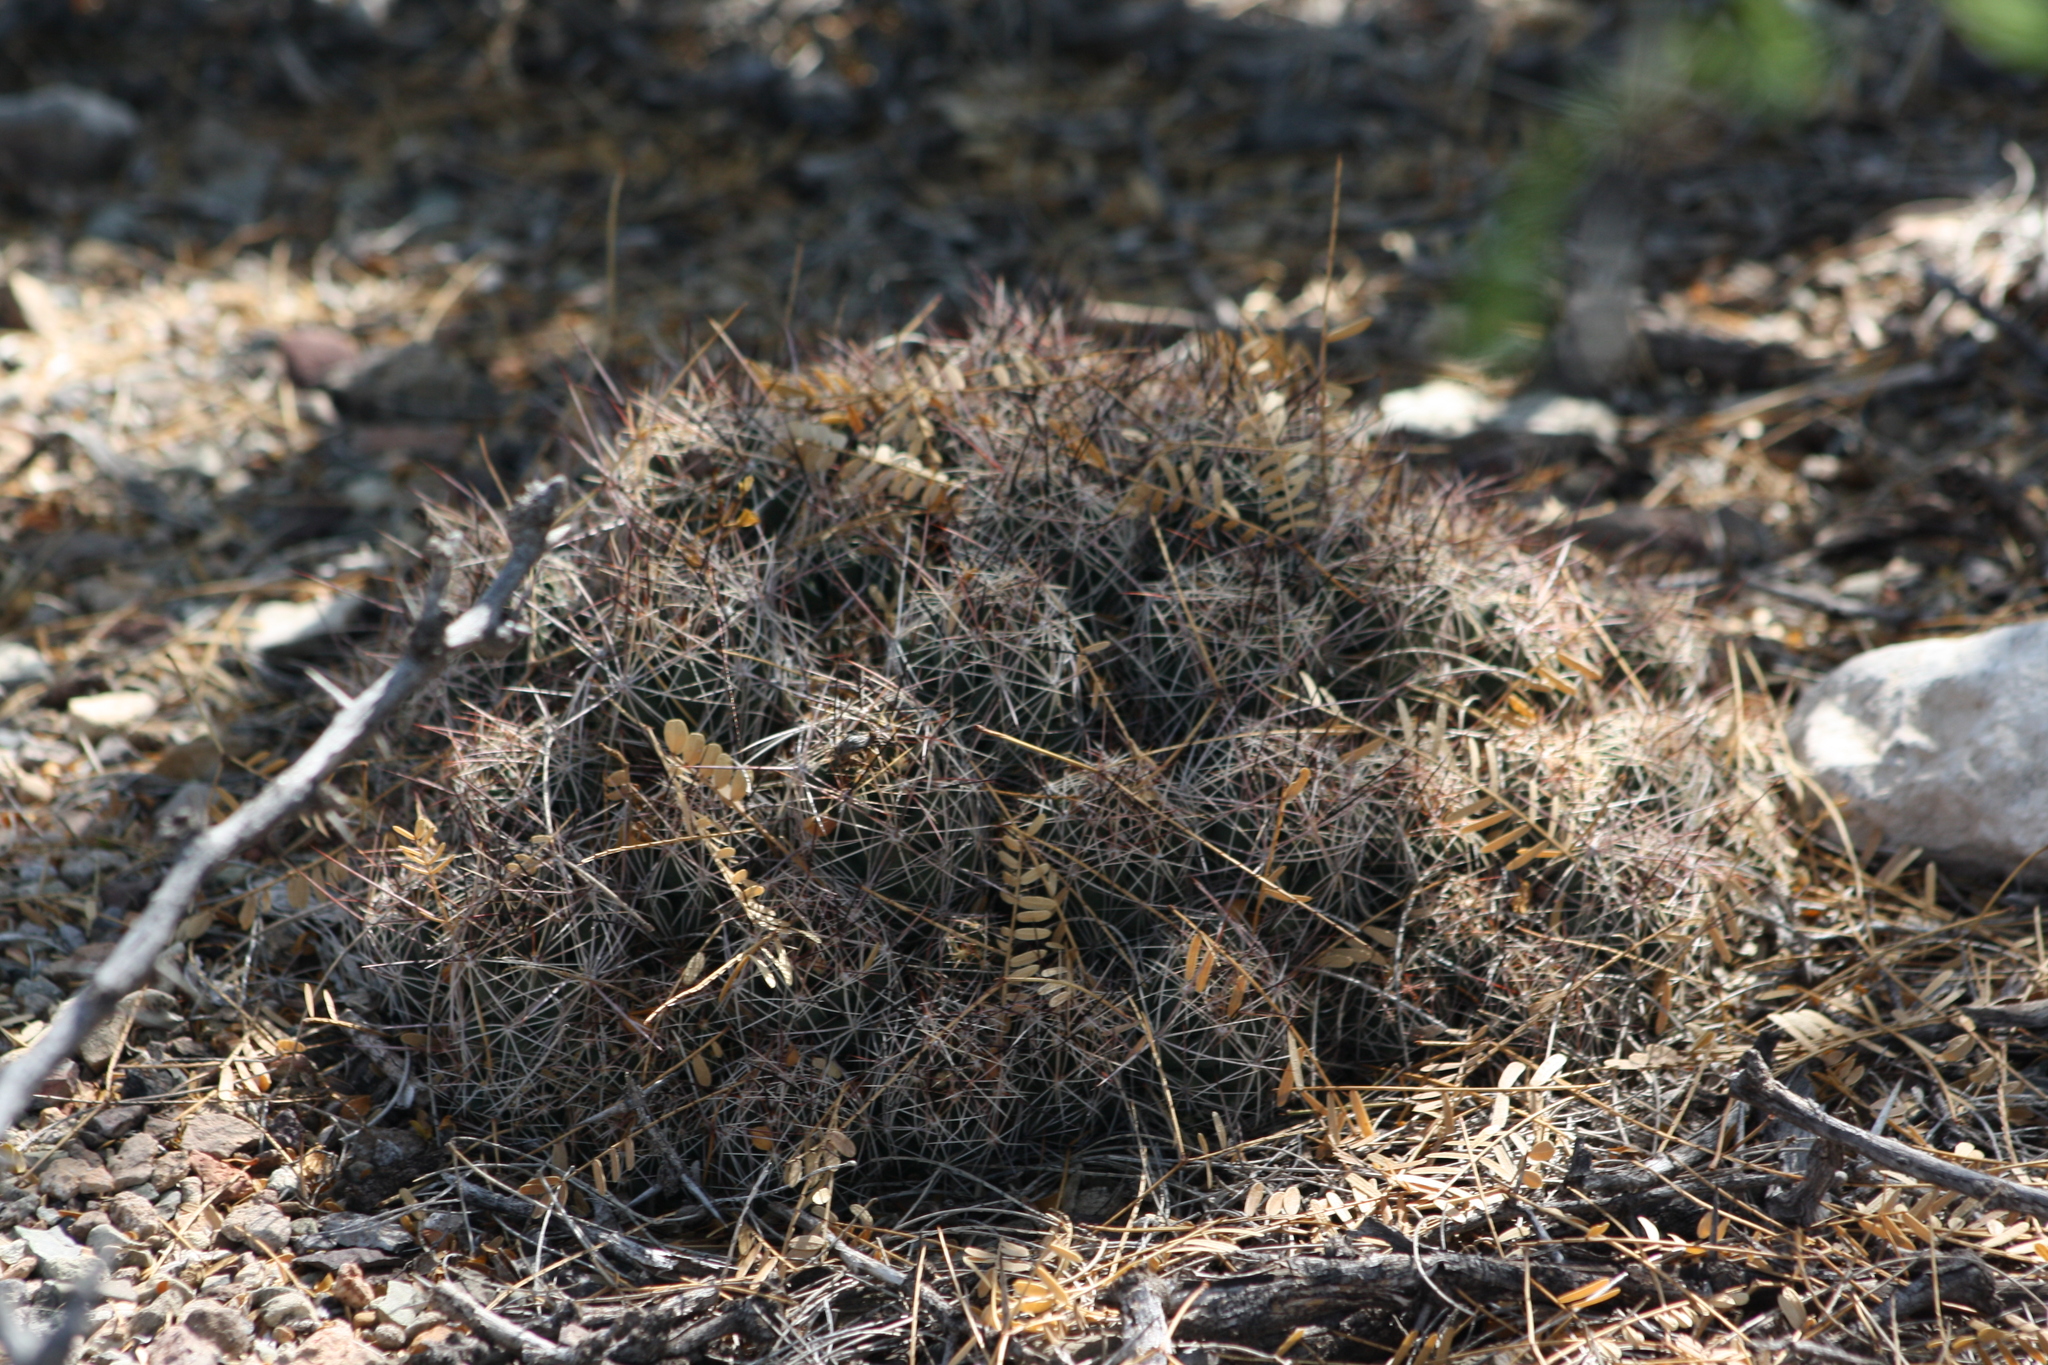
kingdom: Plantae
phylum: Tracheophyta
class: Magnoliopsida
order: Caryophyllales
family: Cactaceae
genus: Coryphantha
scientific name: Coryphantha macromeris
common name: Nipple beehive cactus
